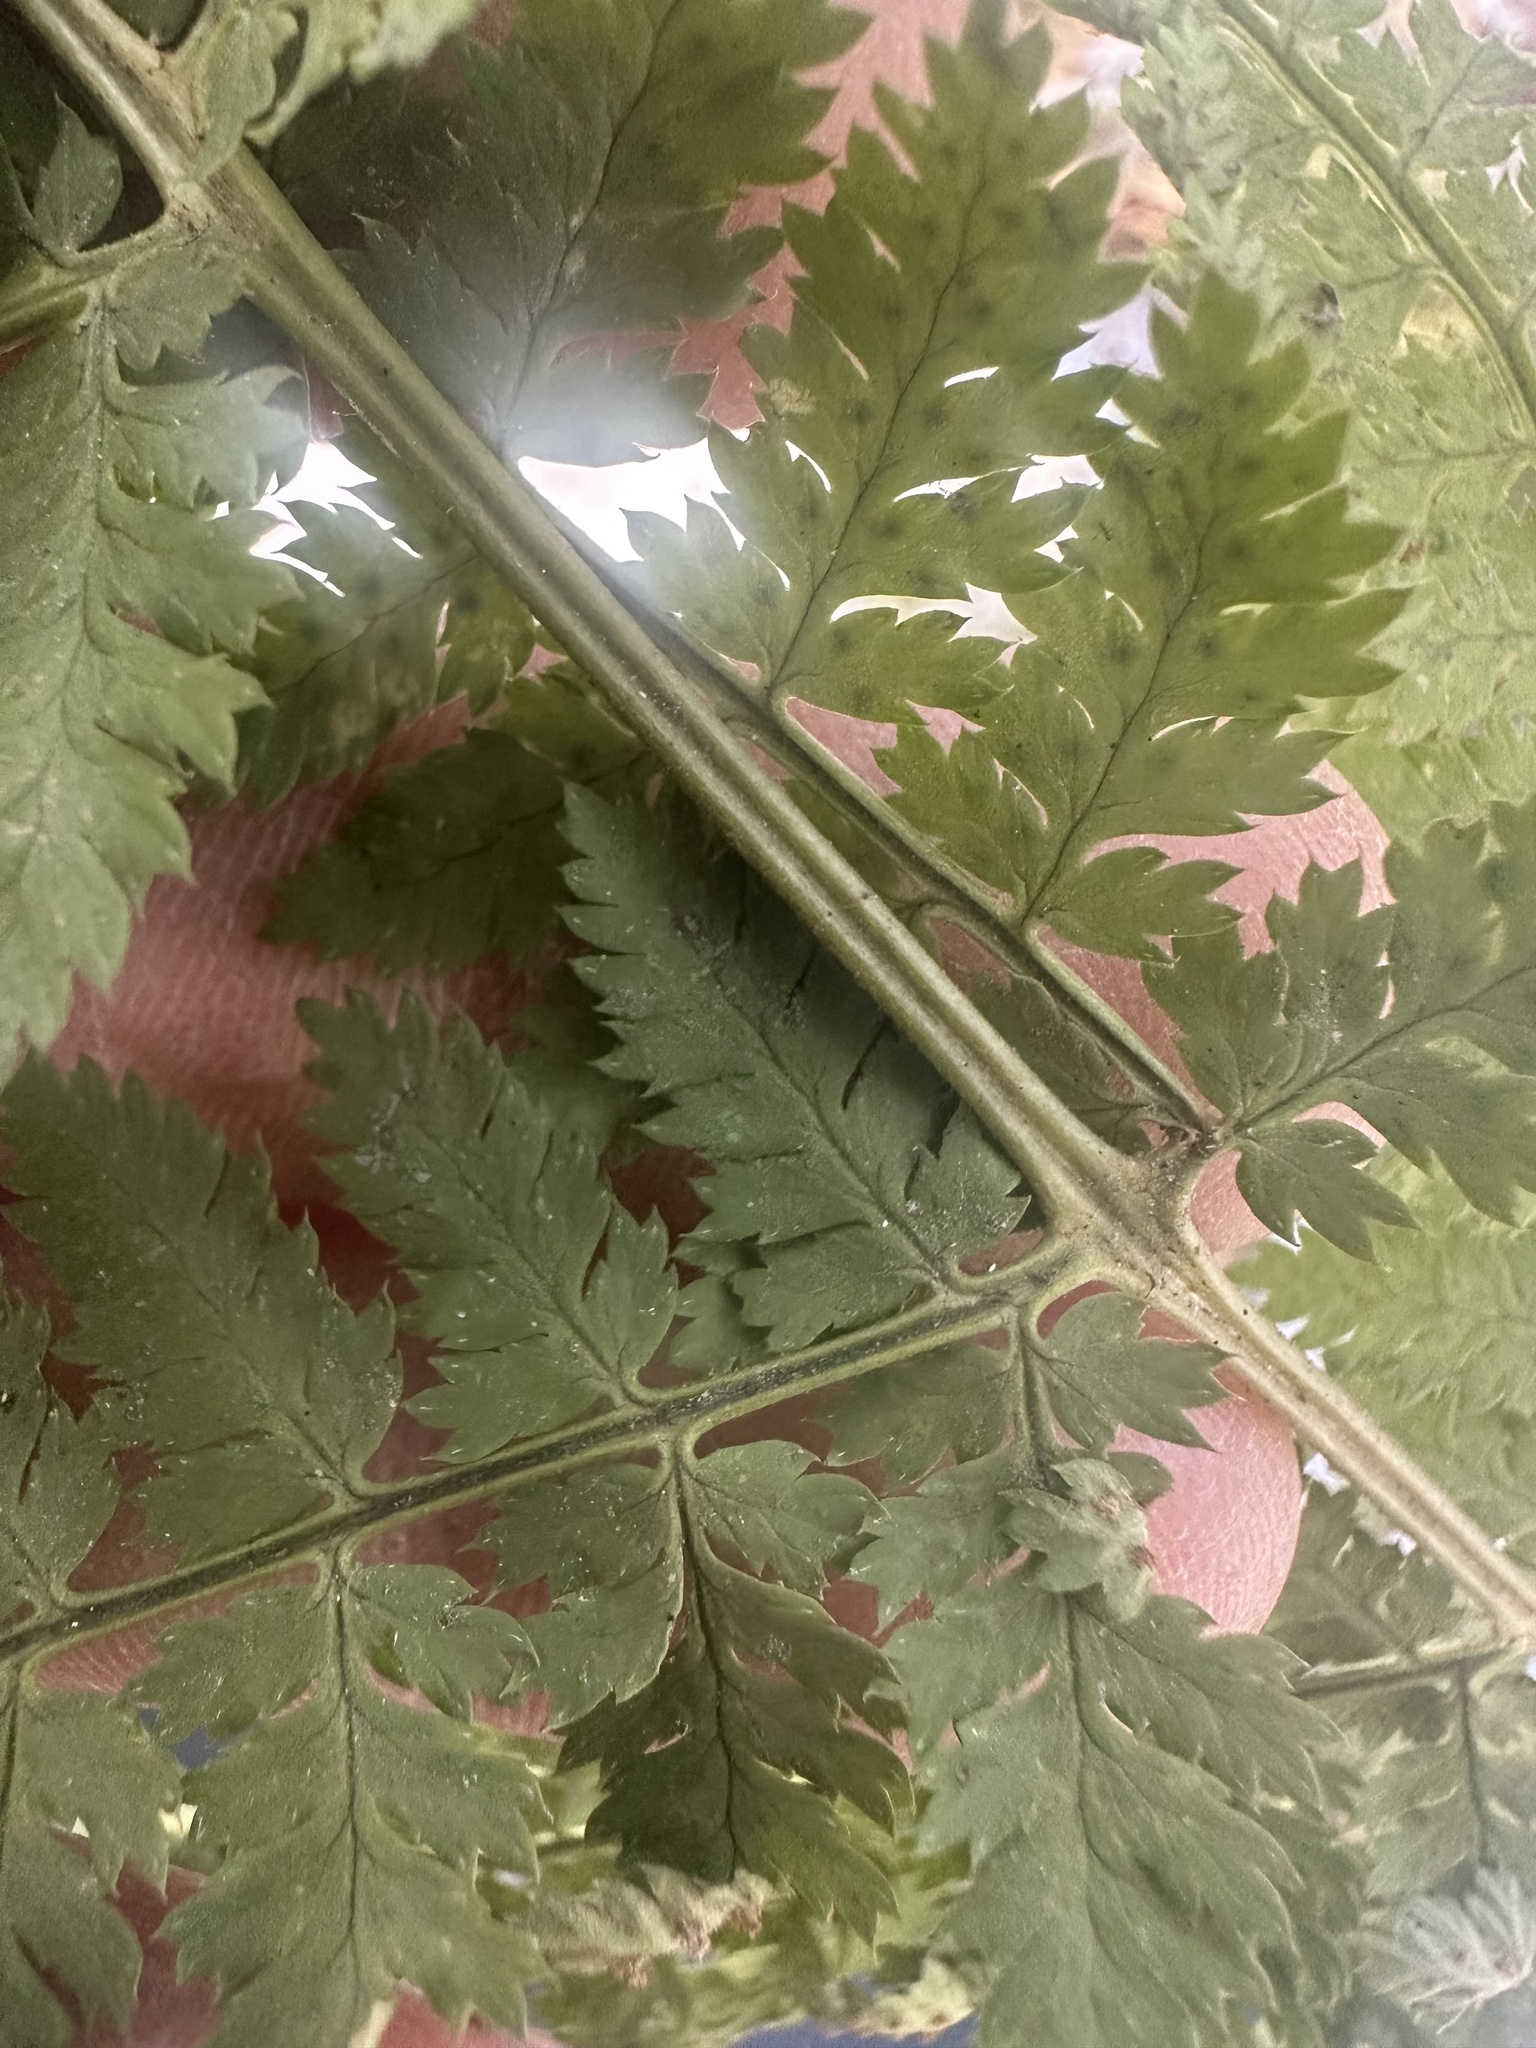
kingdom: Plantae
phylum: Tracheophyta
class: Polypodiopsida
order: Polypodiales
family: Dryopteridaceae
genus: Dryopteris
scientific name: Dryopteris intermedia
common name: Evergreen wood fern
